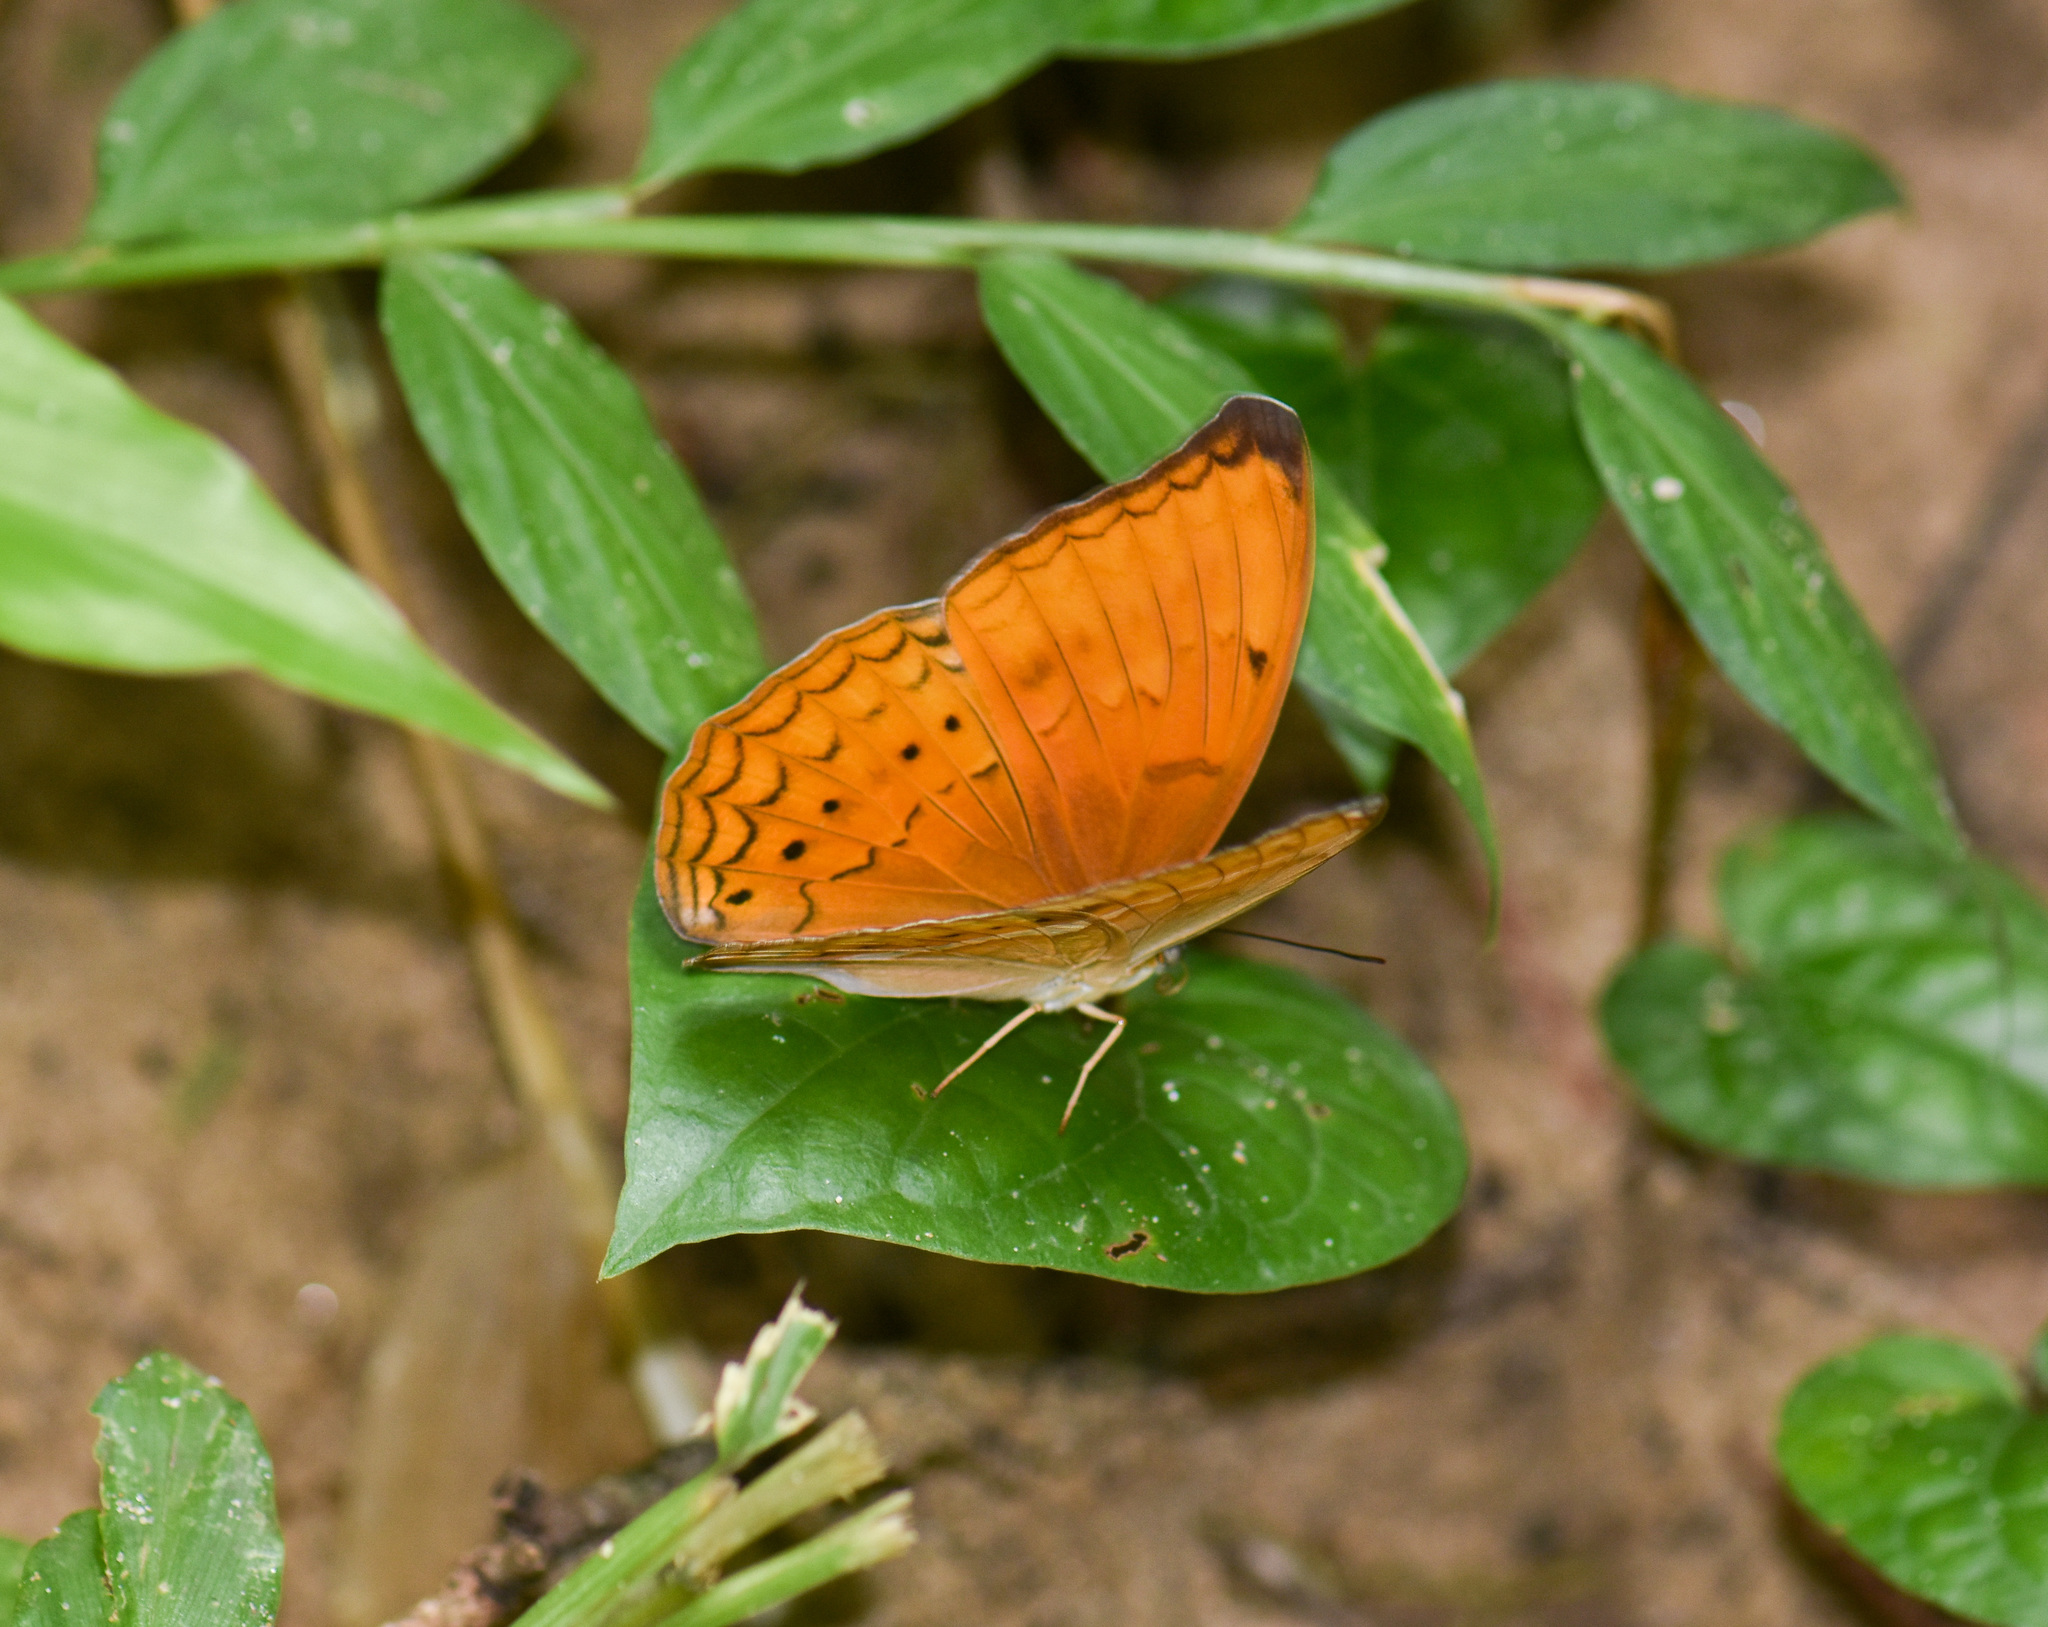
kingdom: Animalia
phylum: Arthropoda
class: Insecta
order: Lepidoptera
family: Nymphalidae
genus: Cirrochroa
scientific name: Cirrochroa tyche
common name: Common yeoman
